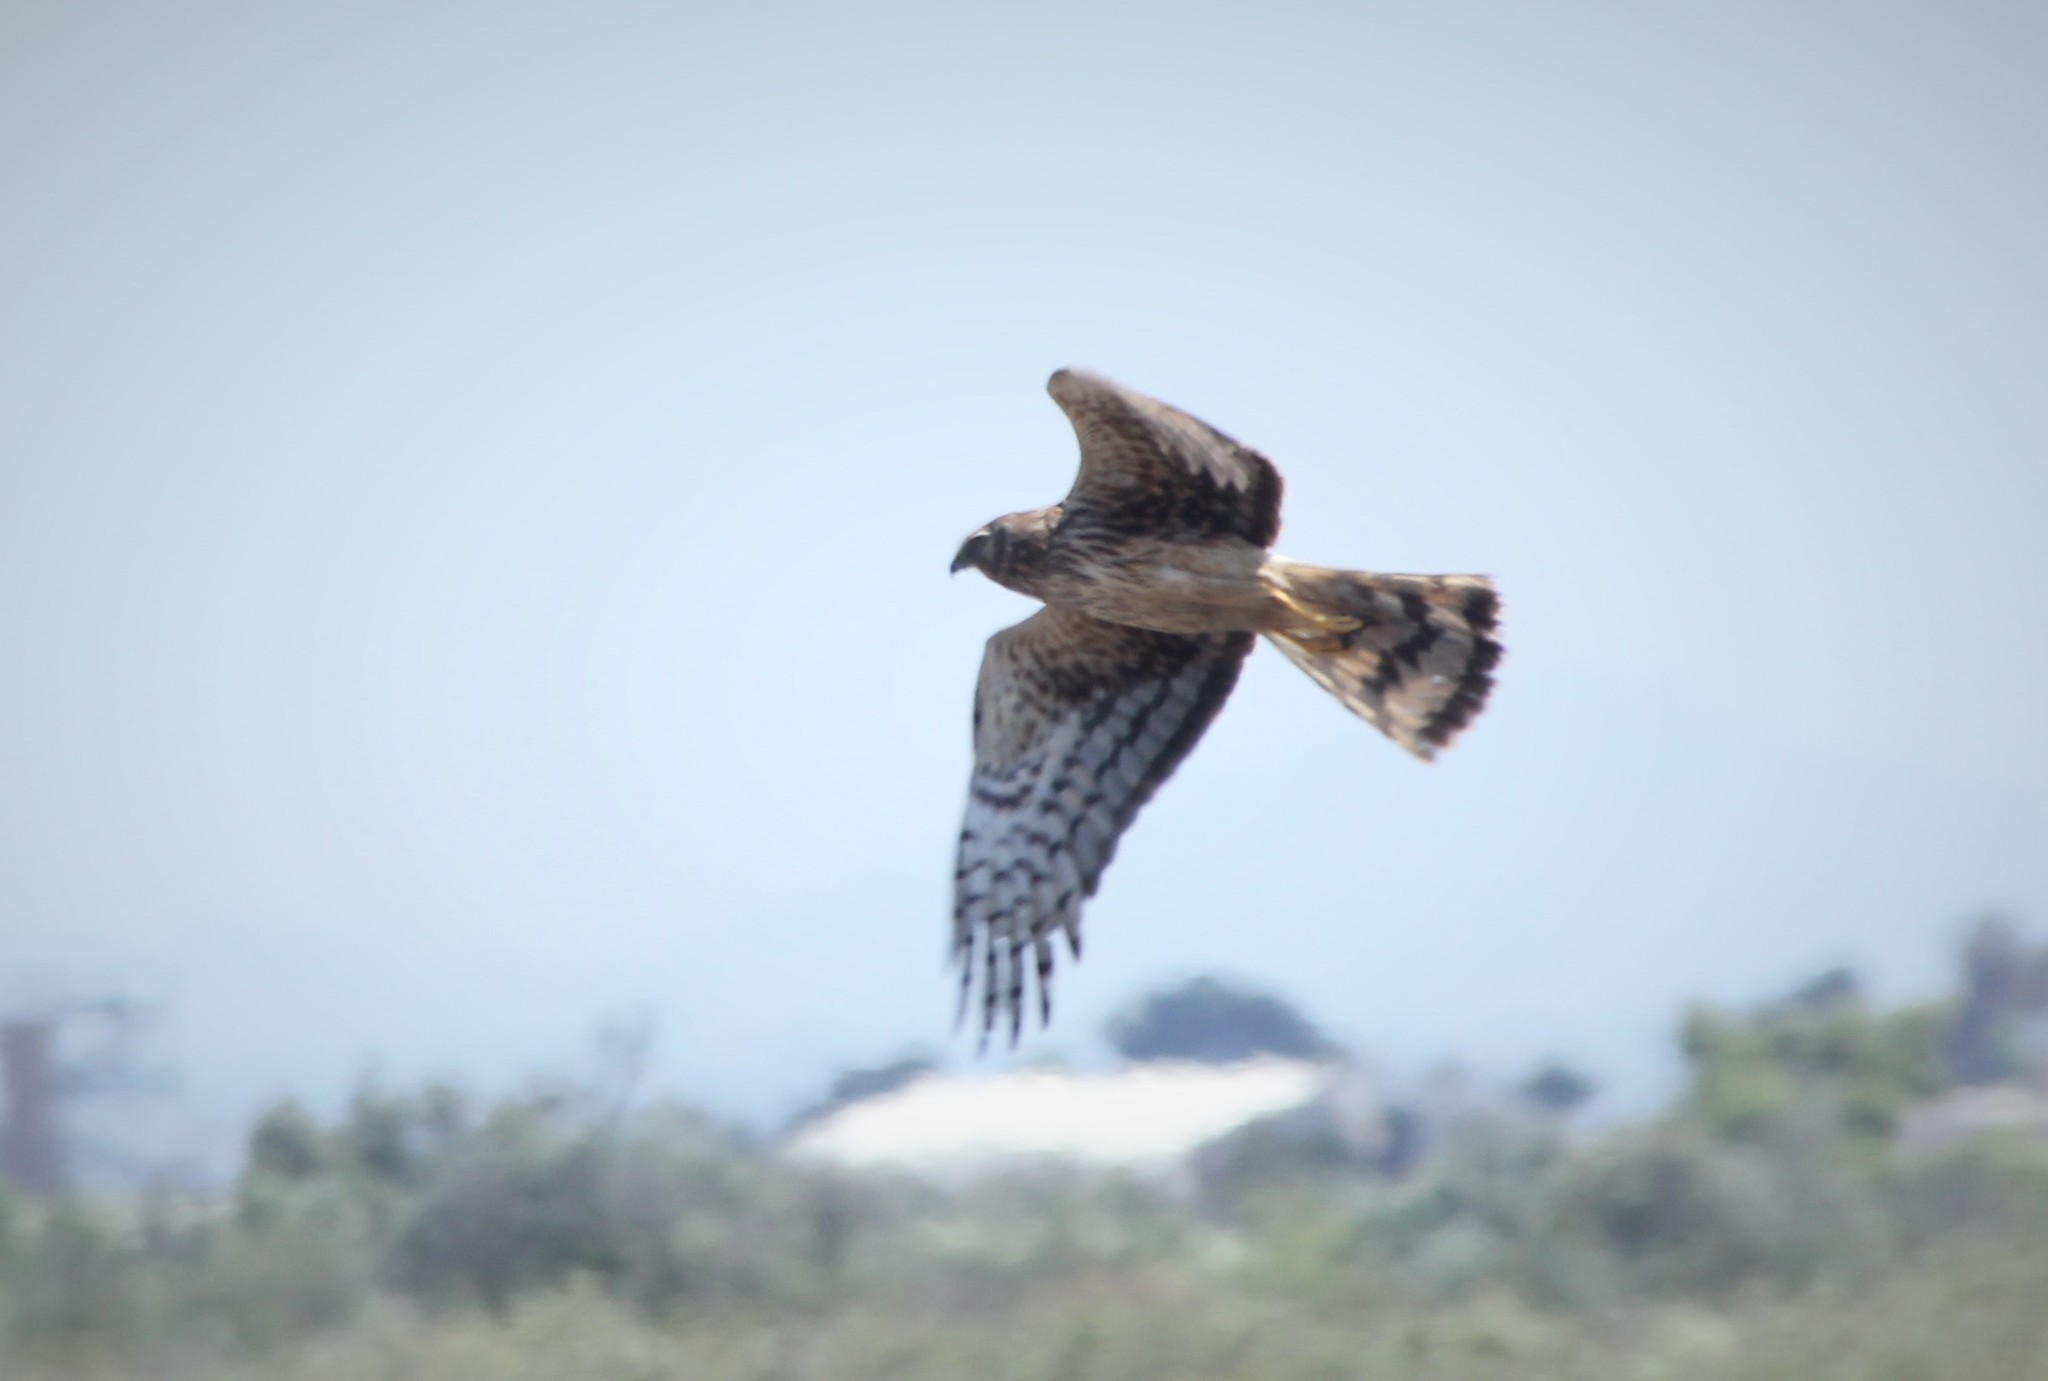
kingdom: Animalia
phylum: Chordata
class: Aves
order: Accipitriformes
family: Accipitridae
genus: Circus
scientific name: Circus cyaneus
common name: Hen harrier
